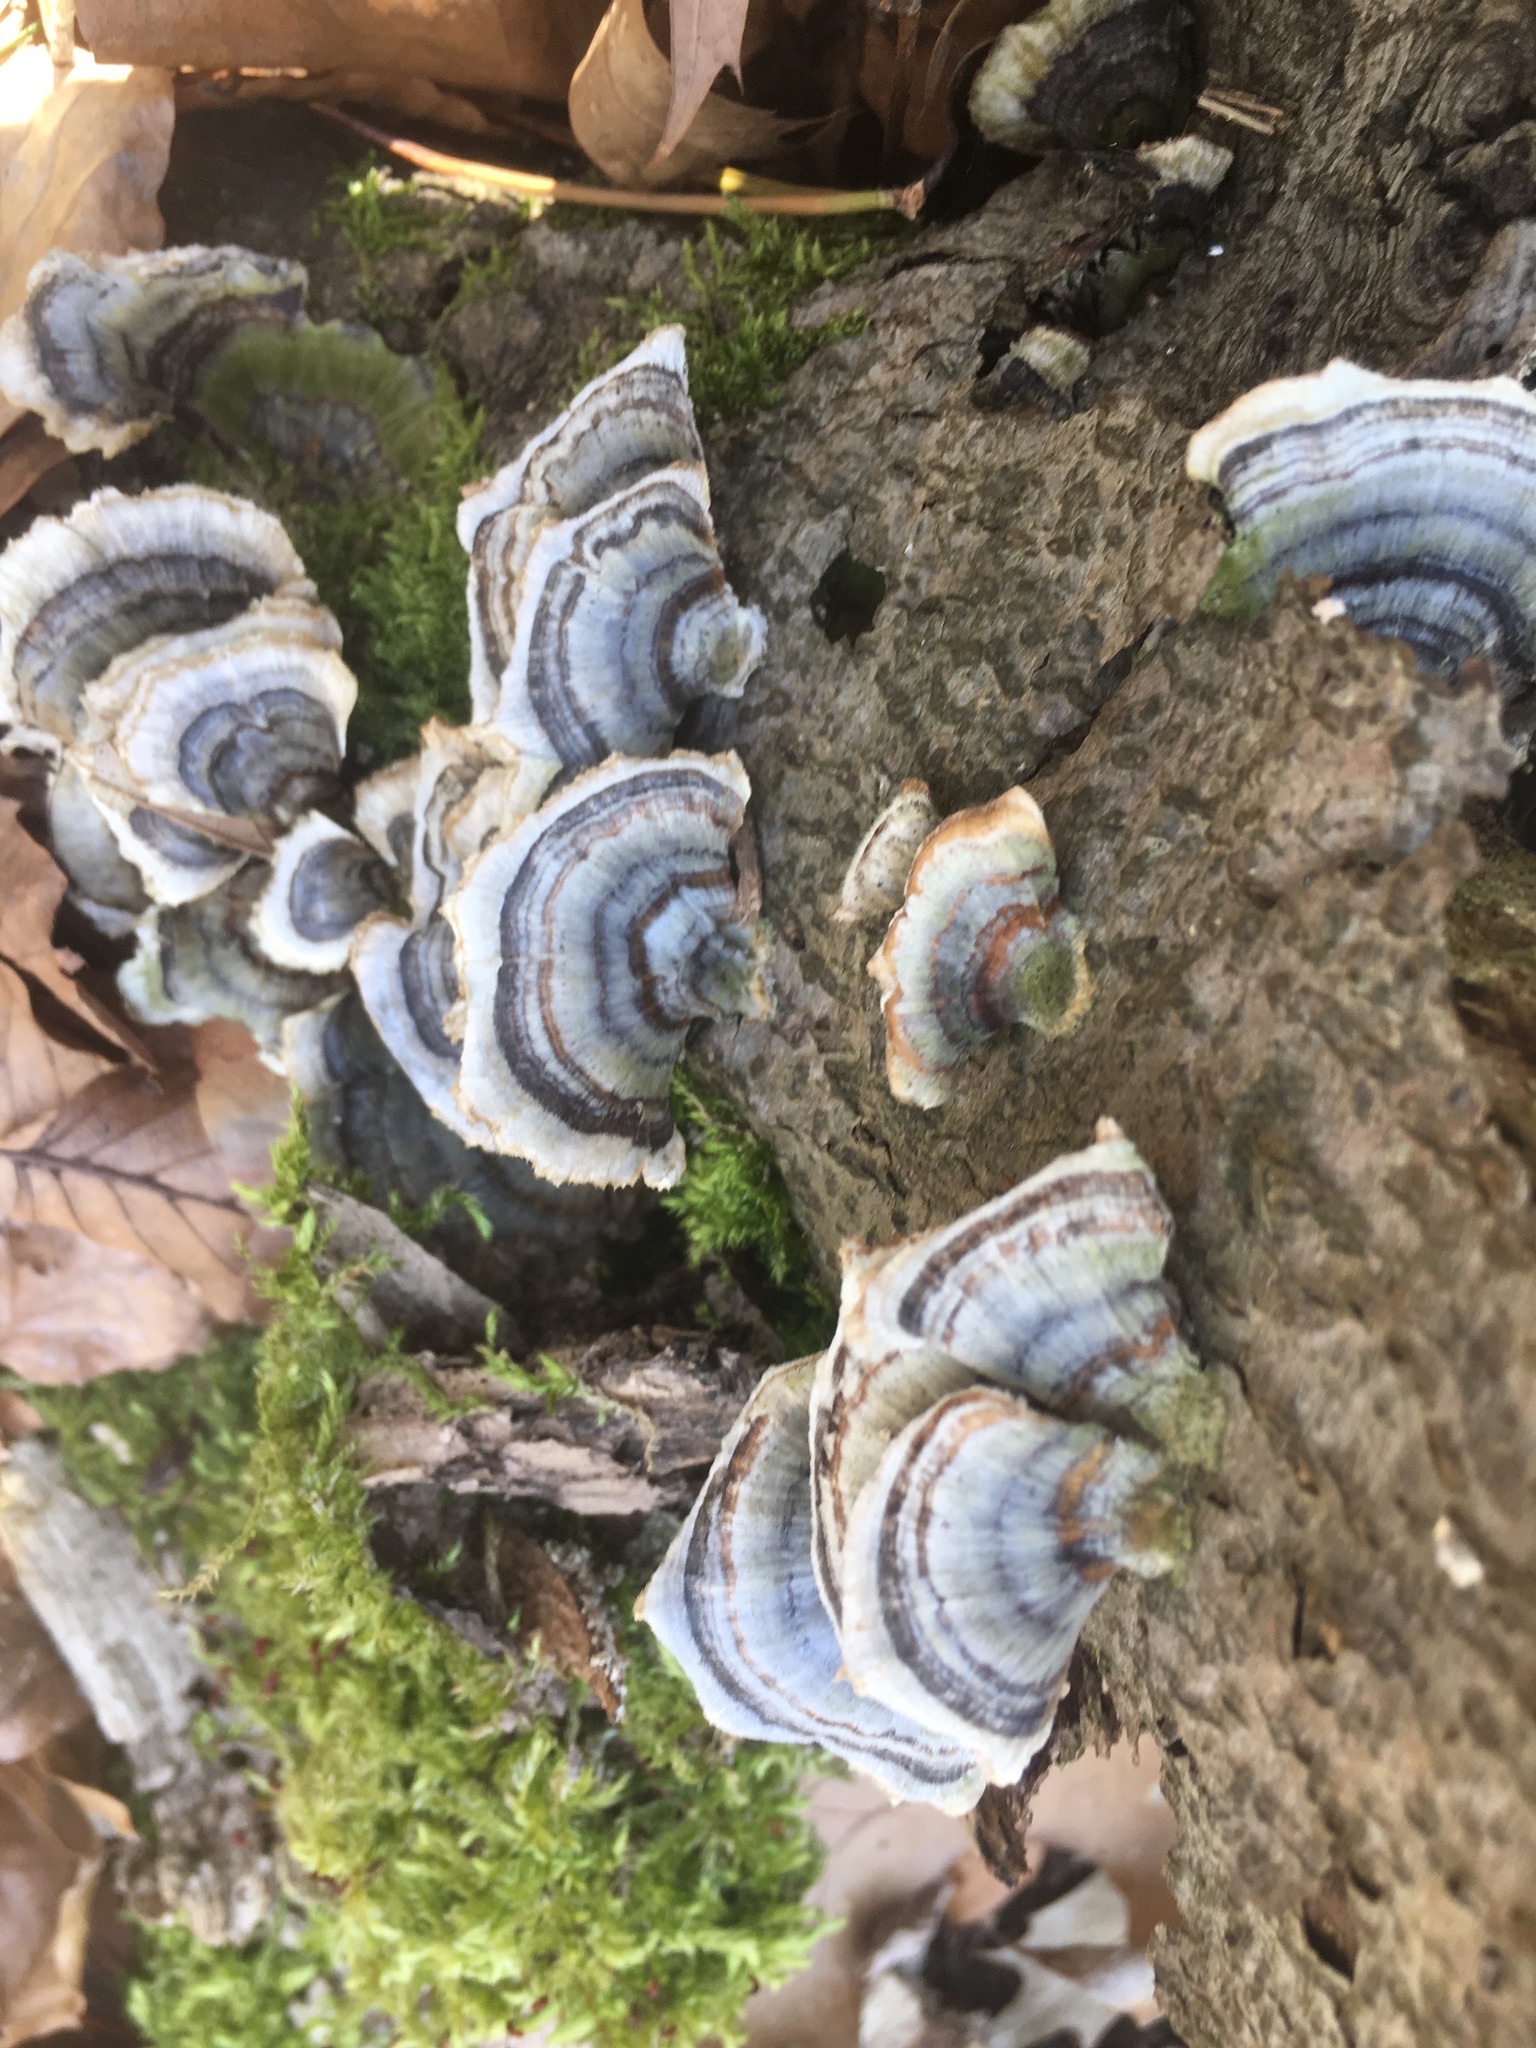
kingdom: Fungi
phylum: Basidiomycota
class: Agaricomycetes
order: Polyporales
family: Polyporaceae
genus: Trametes
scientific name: Trametes versicolor
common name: Turkeytail
